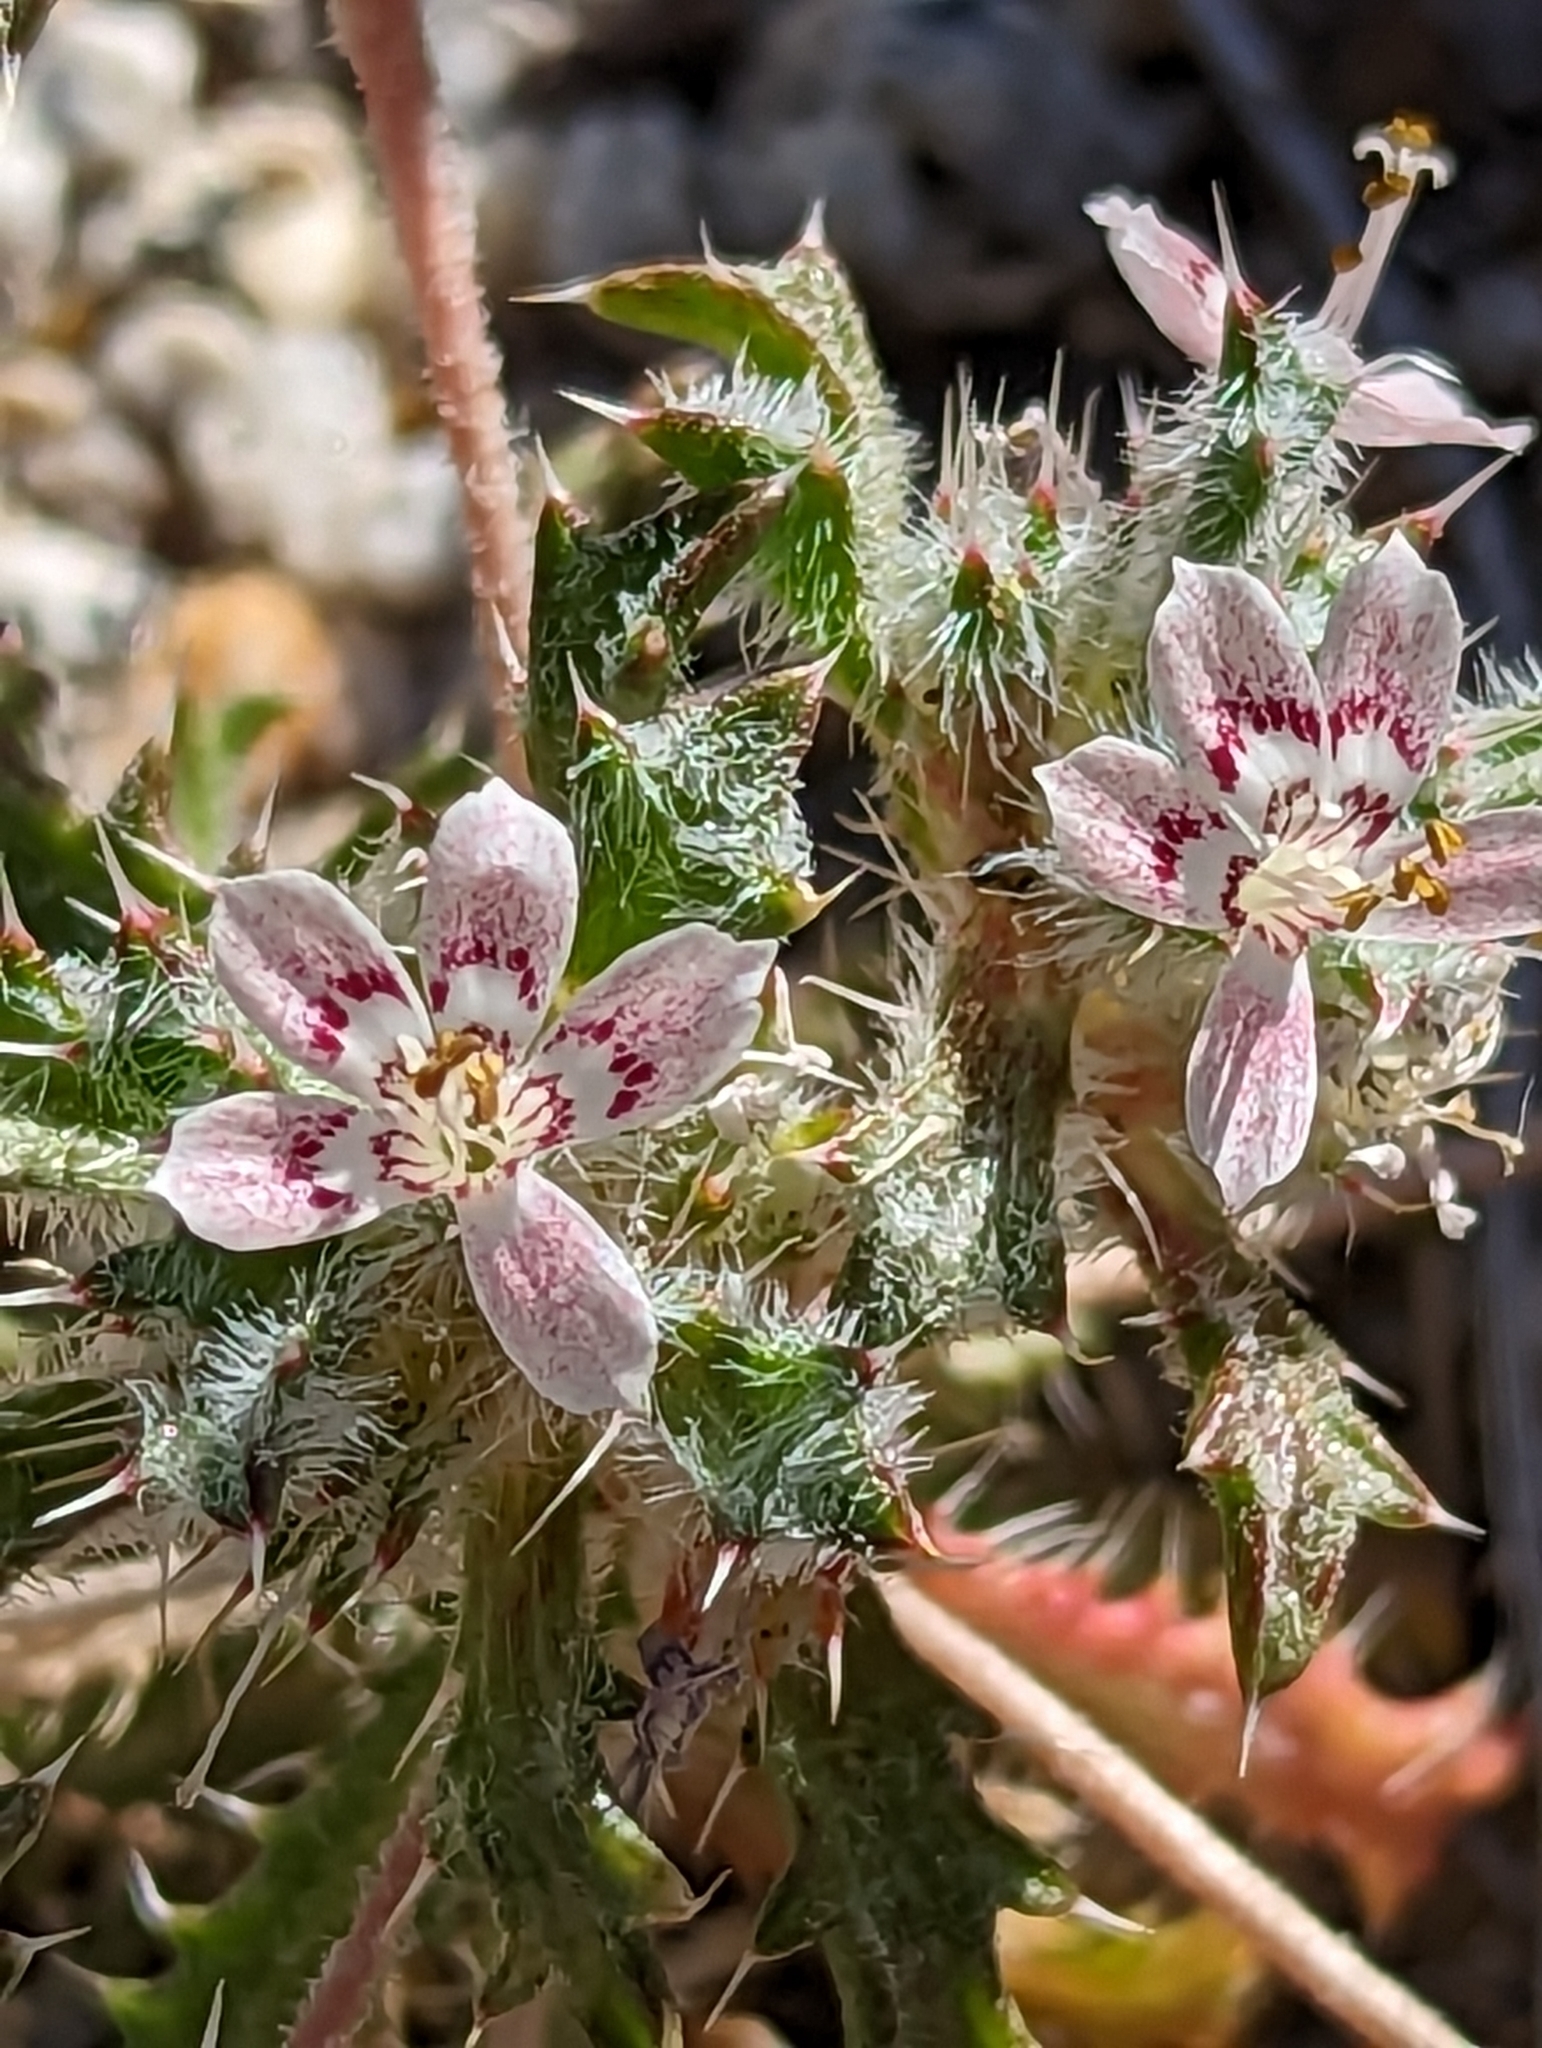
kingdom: Plantae
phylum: Tracheophyta
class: Magnoliopsida
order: Ericales
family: Polemoniaceae
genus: Loeseliastrum
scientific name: Loeseliastrum matthewsii
